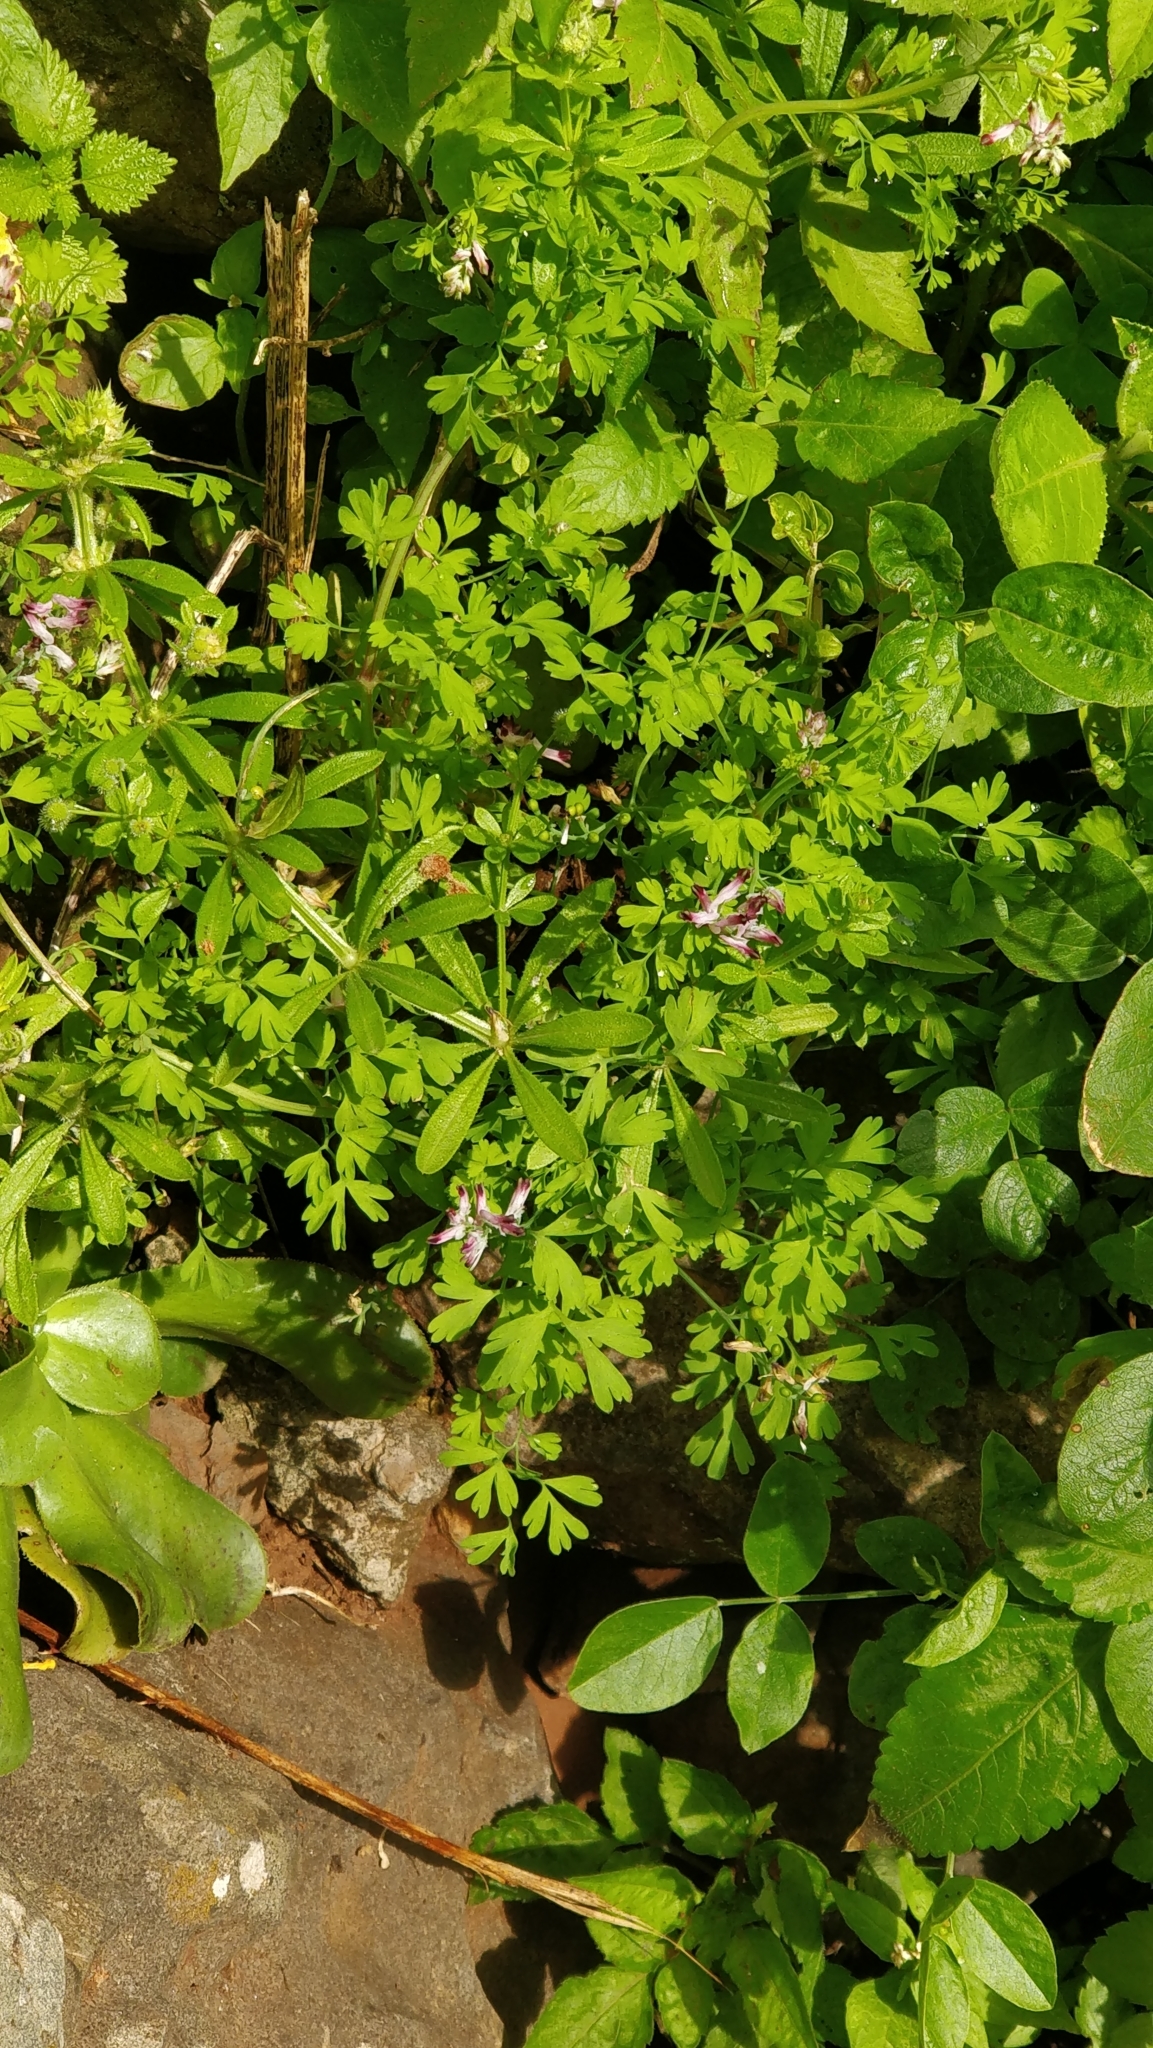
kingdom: Plantae
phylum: Tracheophyta
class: Magnoliopsida
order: Gentianales
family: Rubiaceae
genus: Galium
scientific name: Galium aparine
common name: Cleavers
